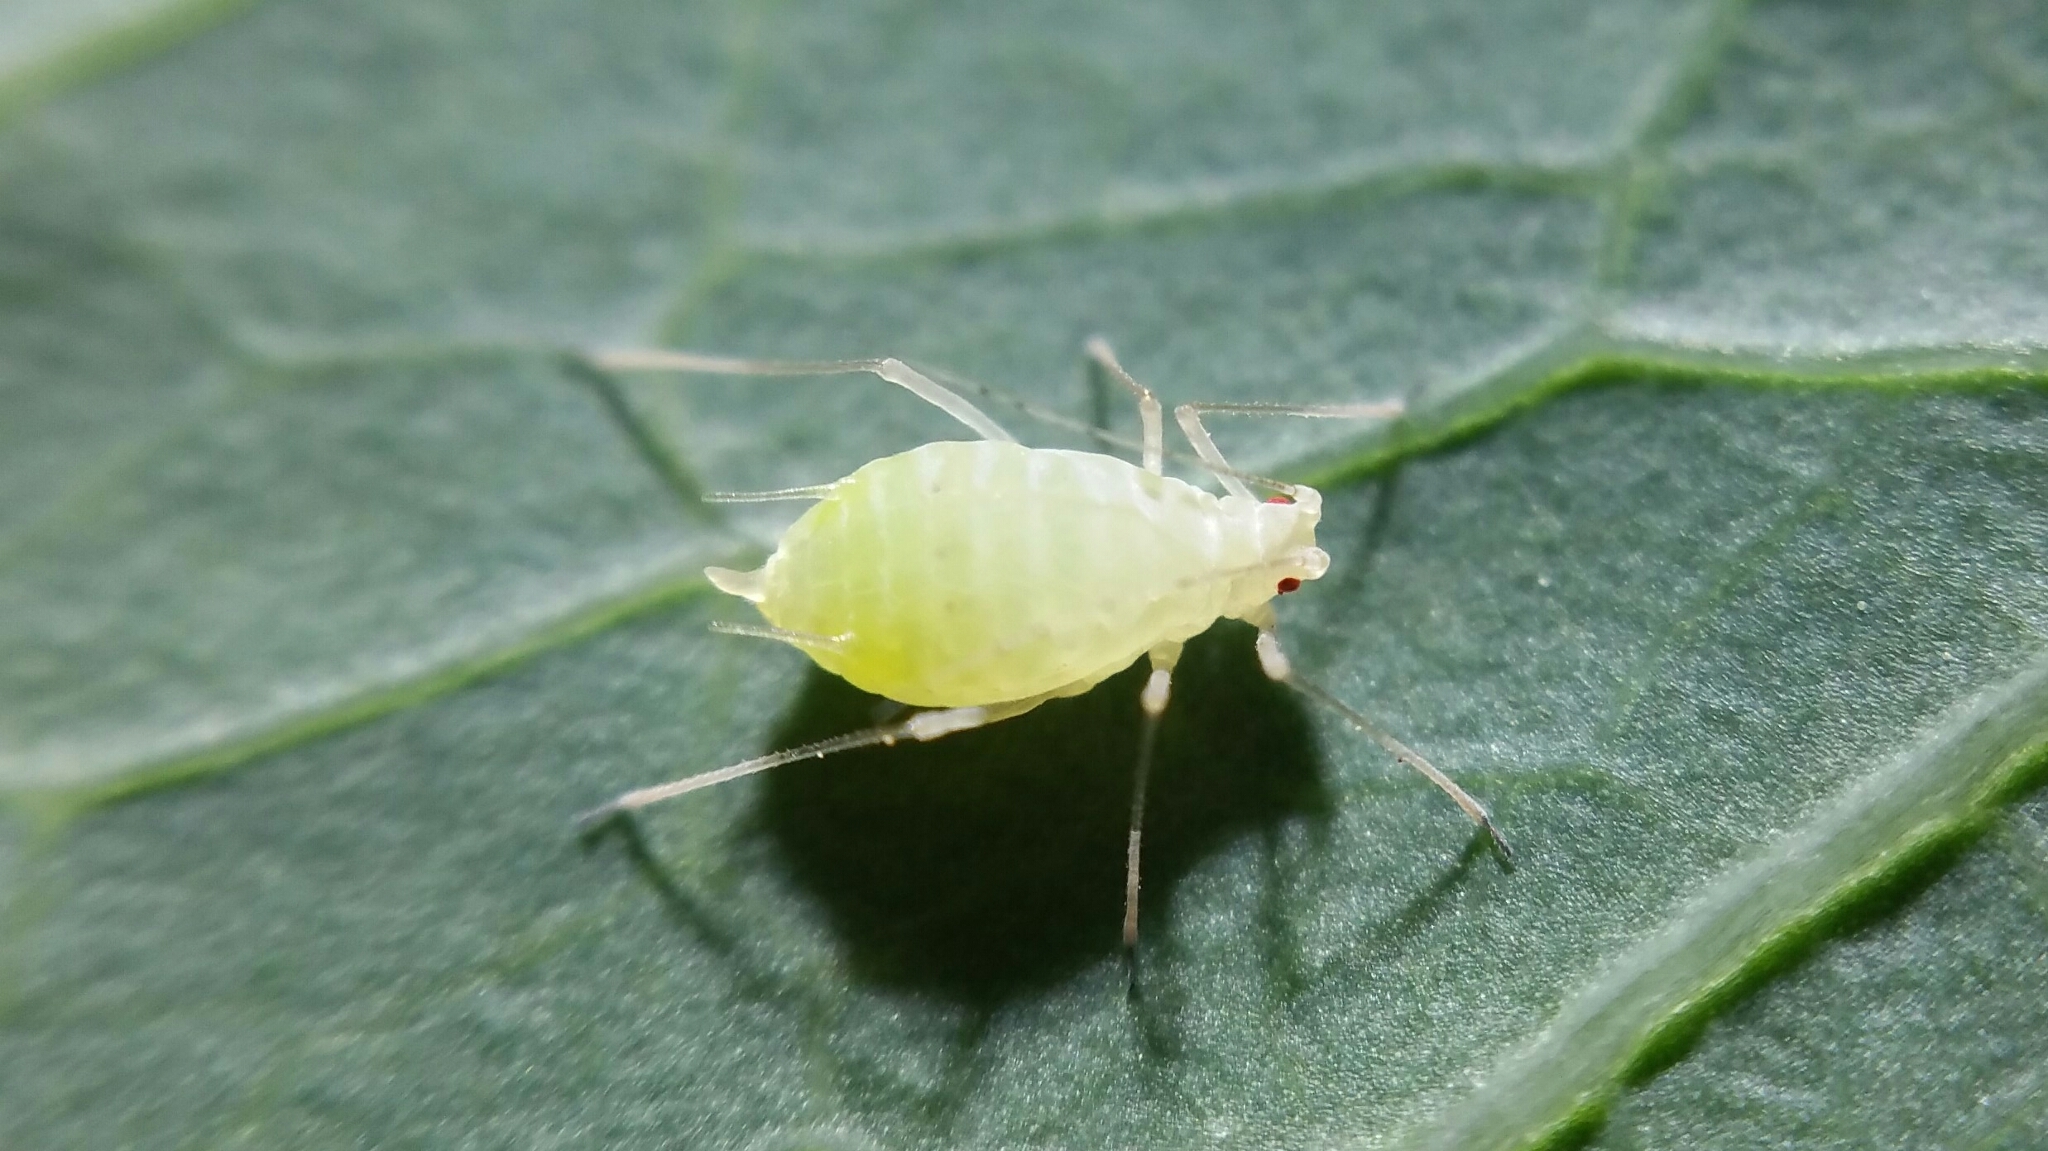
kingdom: Animalia
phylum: Arthropoda
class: Insecta
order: Hemiptera
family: Aphididae
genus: Acyrthosiphon
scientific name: Acyrthosiphon lactucae
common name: Aphid
